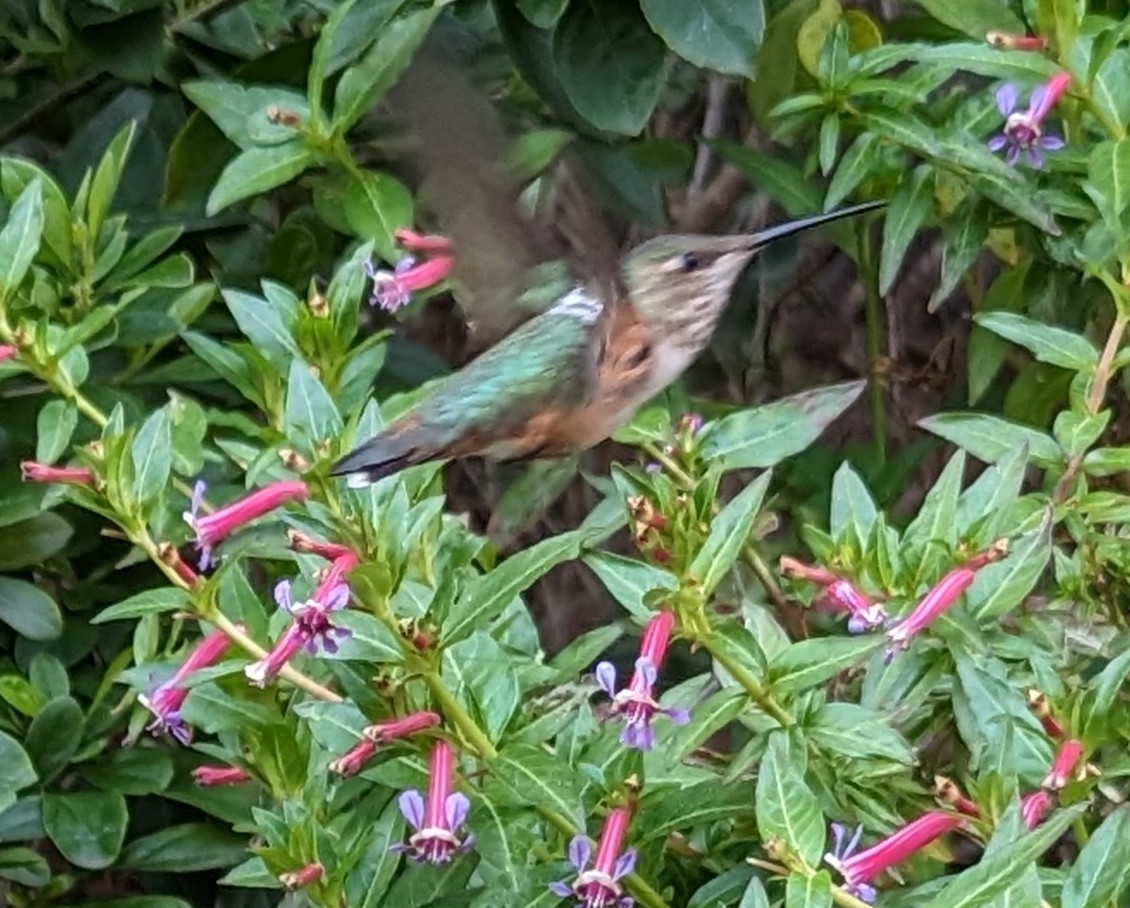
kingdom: Animalia
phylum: Chordata
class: Aves
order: Apodiformes
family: Trochilidae
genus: Selasphorus
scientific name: Selasphorus sasin
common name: Allen's hummingbird
